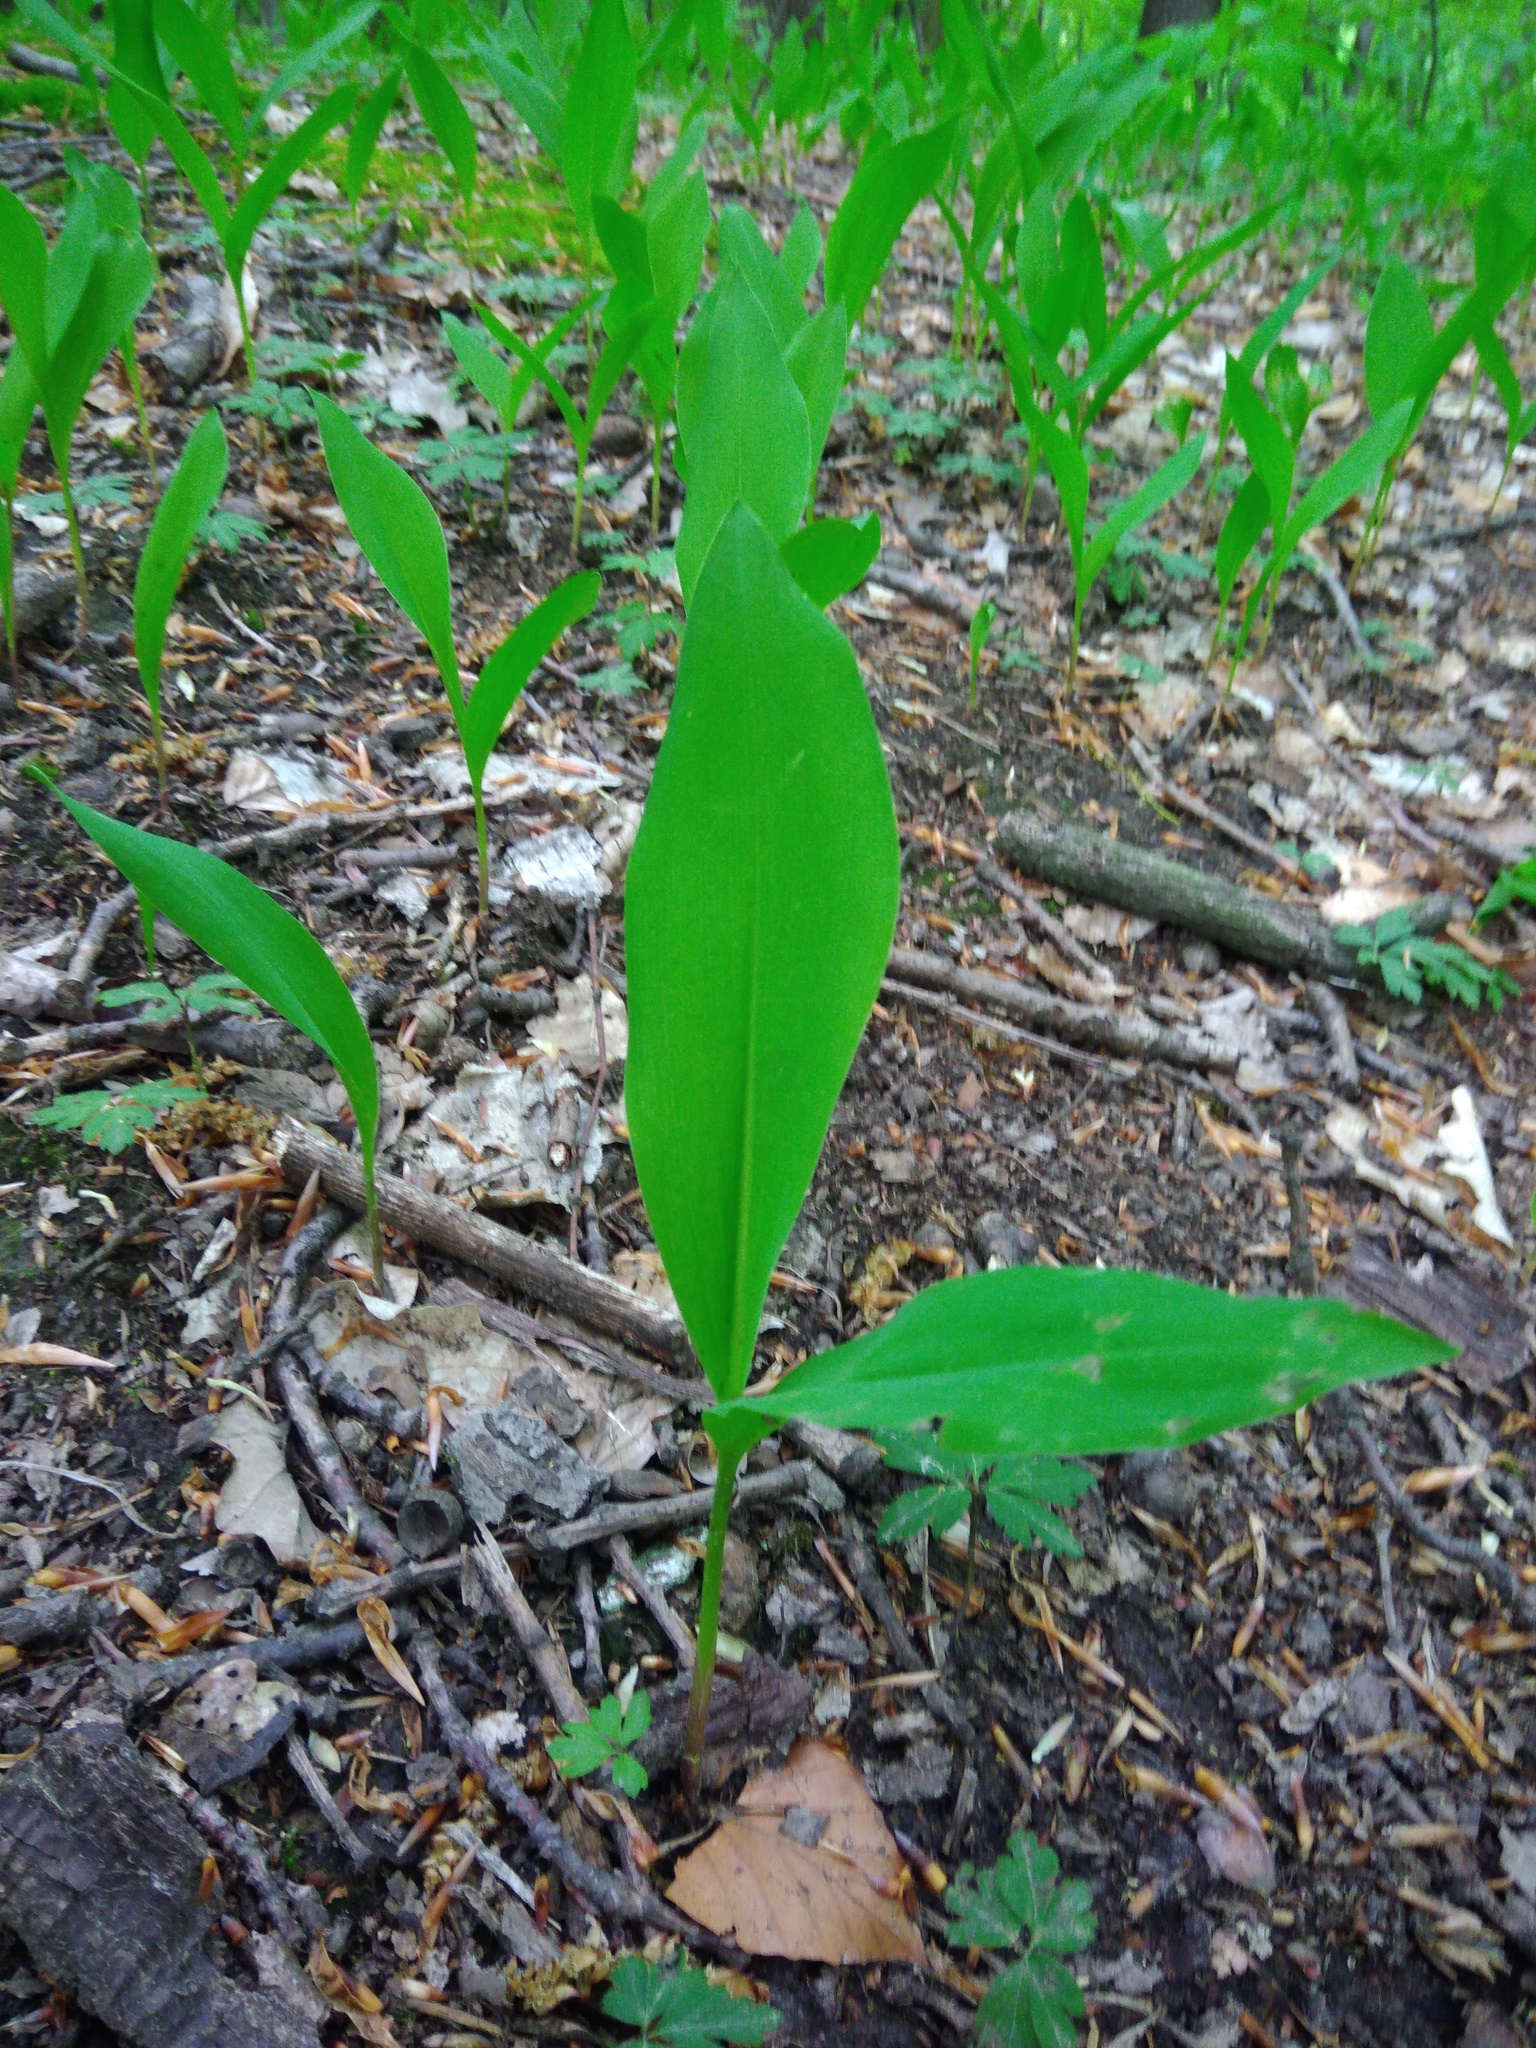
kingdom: Plantae
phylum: Tracheophyta
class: Liliopsida
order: Asparagales
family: Asparagaceae
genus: Convallaria
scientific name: Convallaria majalis
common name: Lily-of-the-valley
